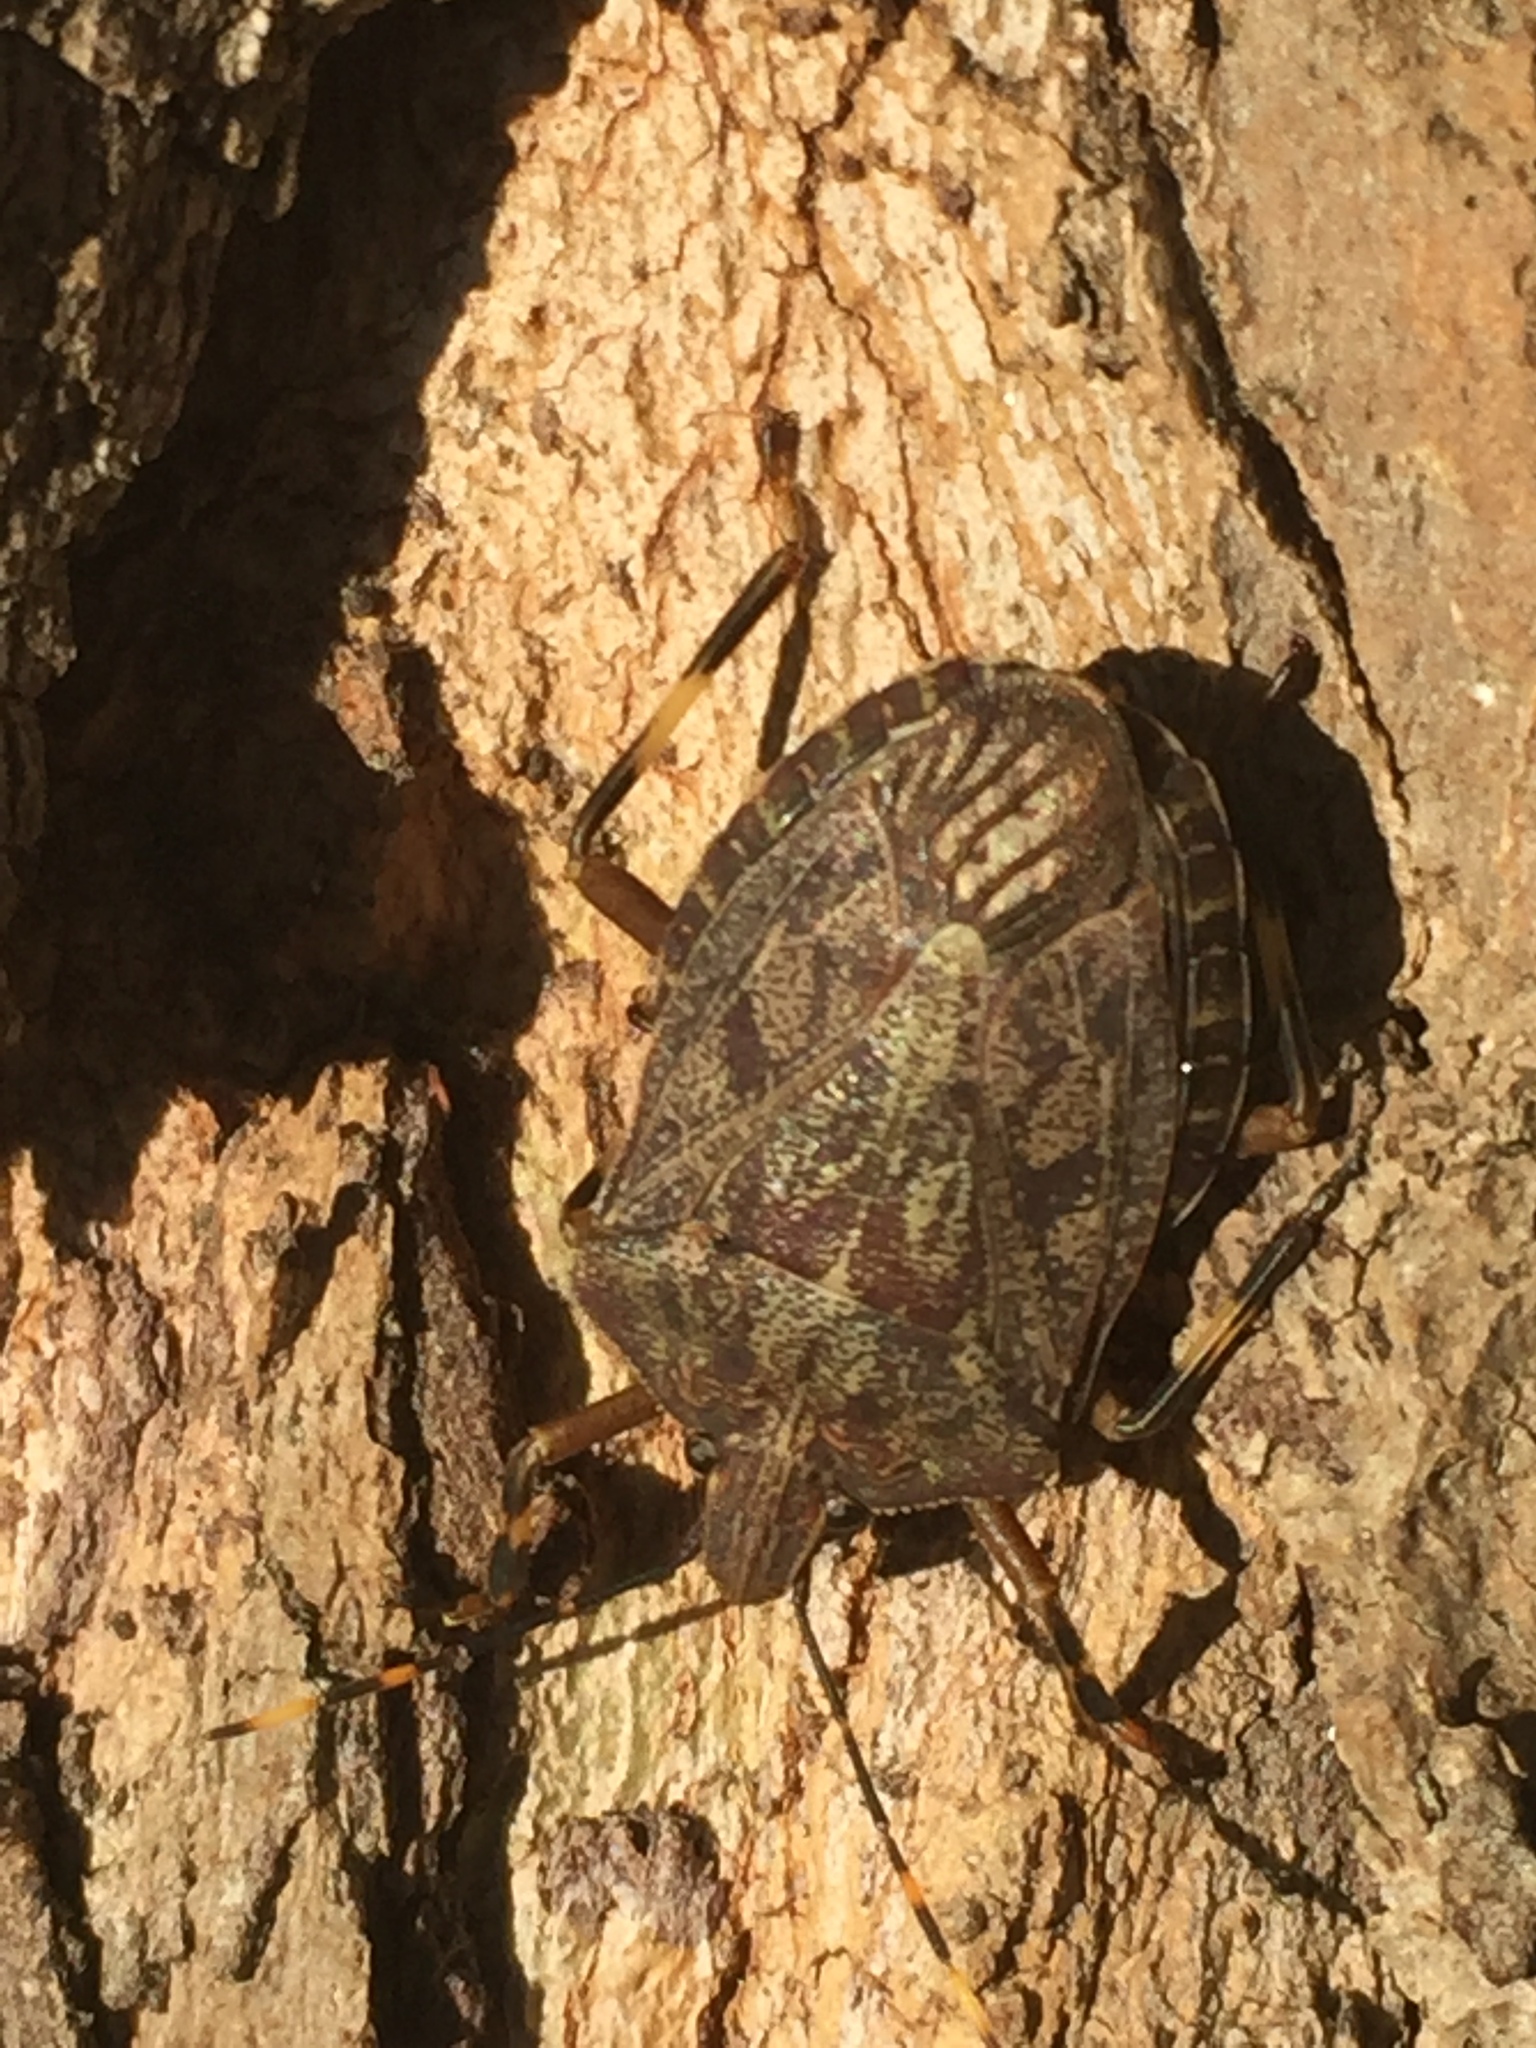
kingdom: Animalia
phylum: Arthropoda
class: Insecta
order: Hemiptera
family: Pentatomidae
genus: Coenomorpha
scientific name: Coenomorpha nervosa
